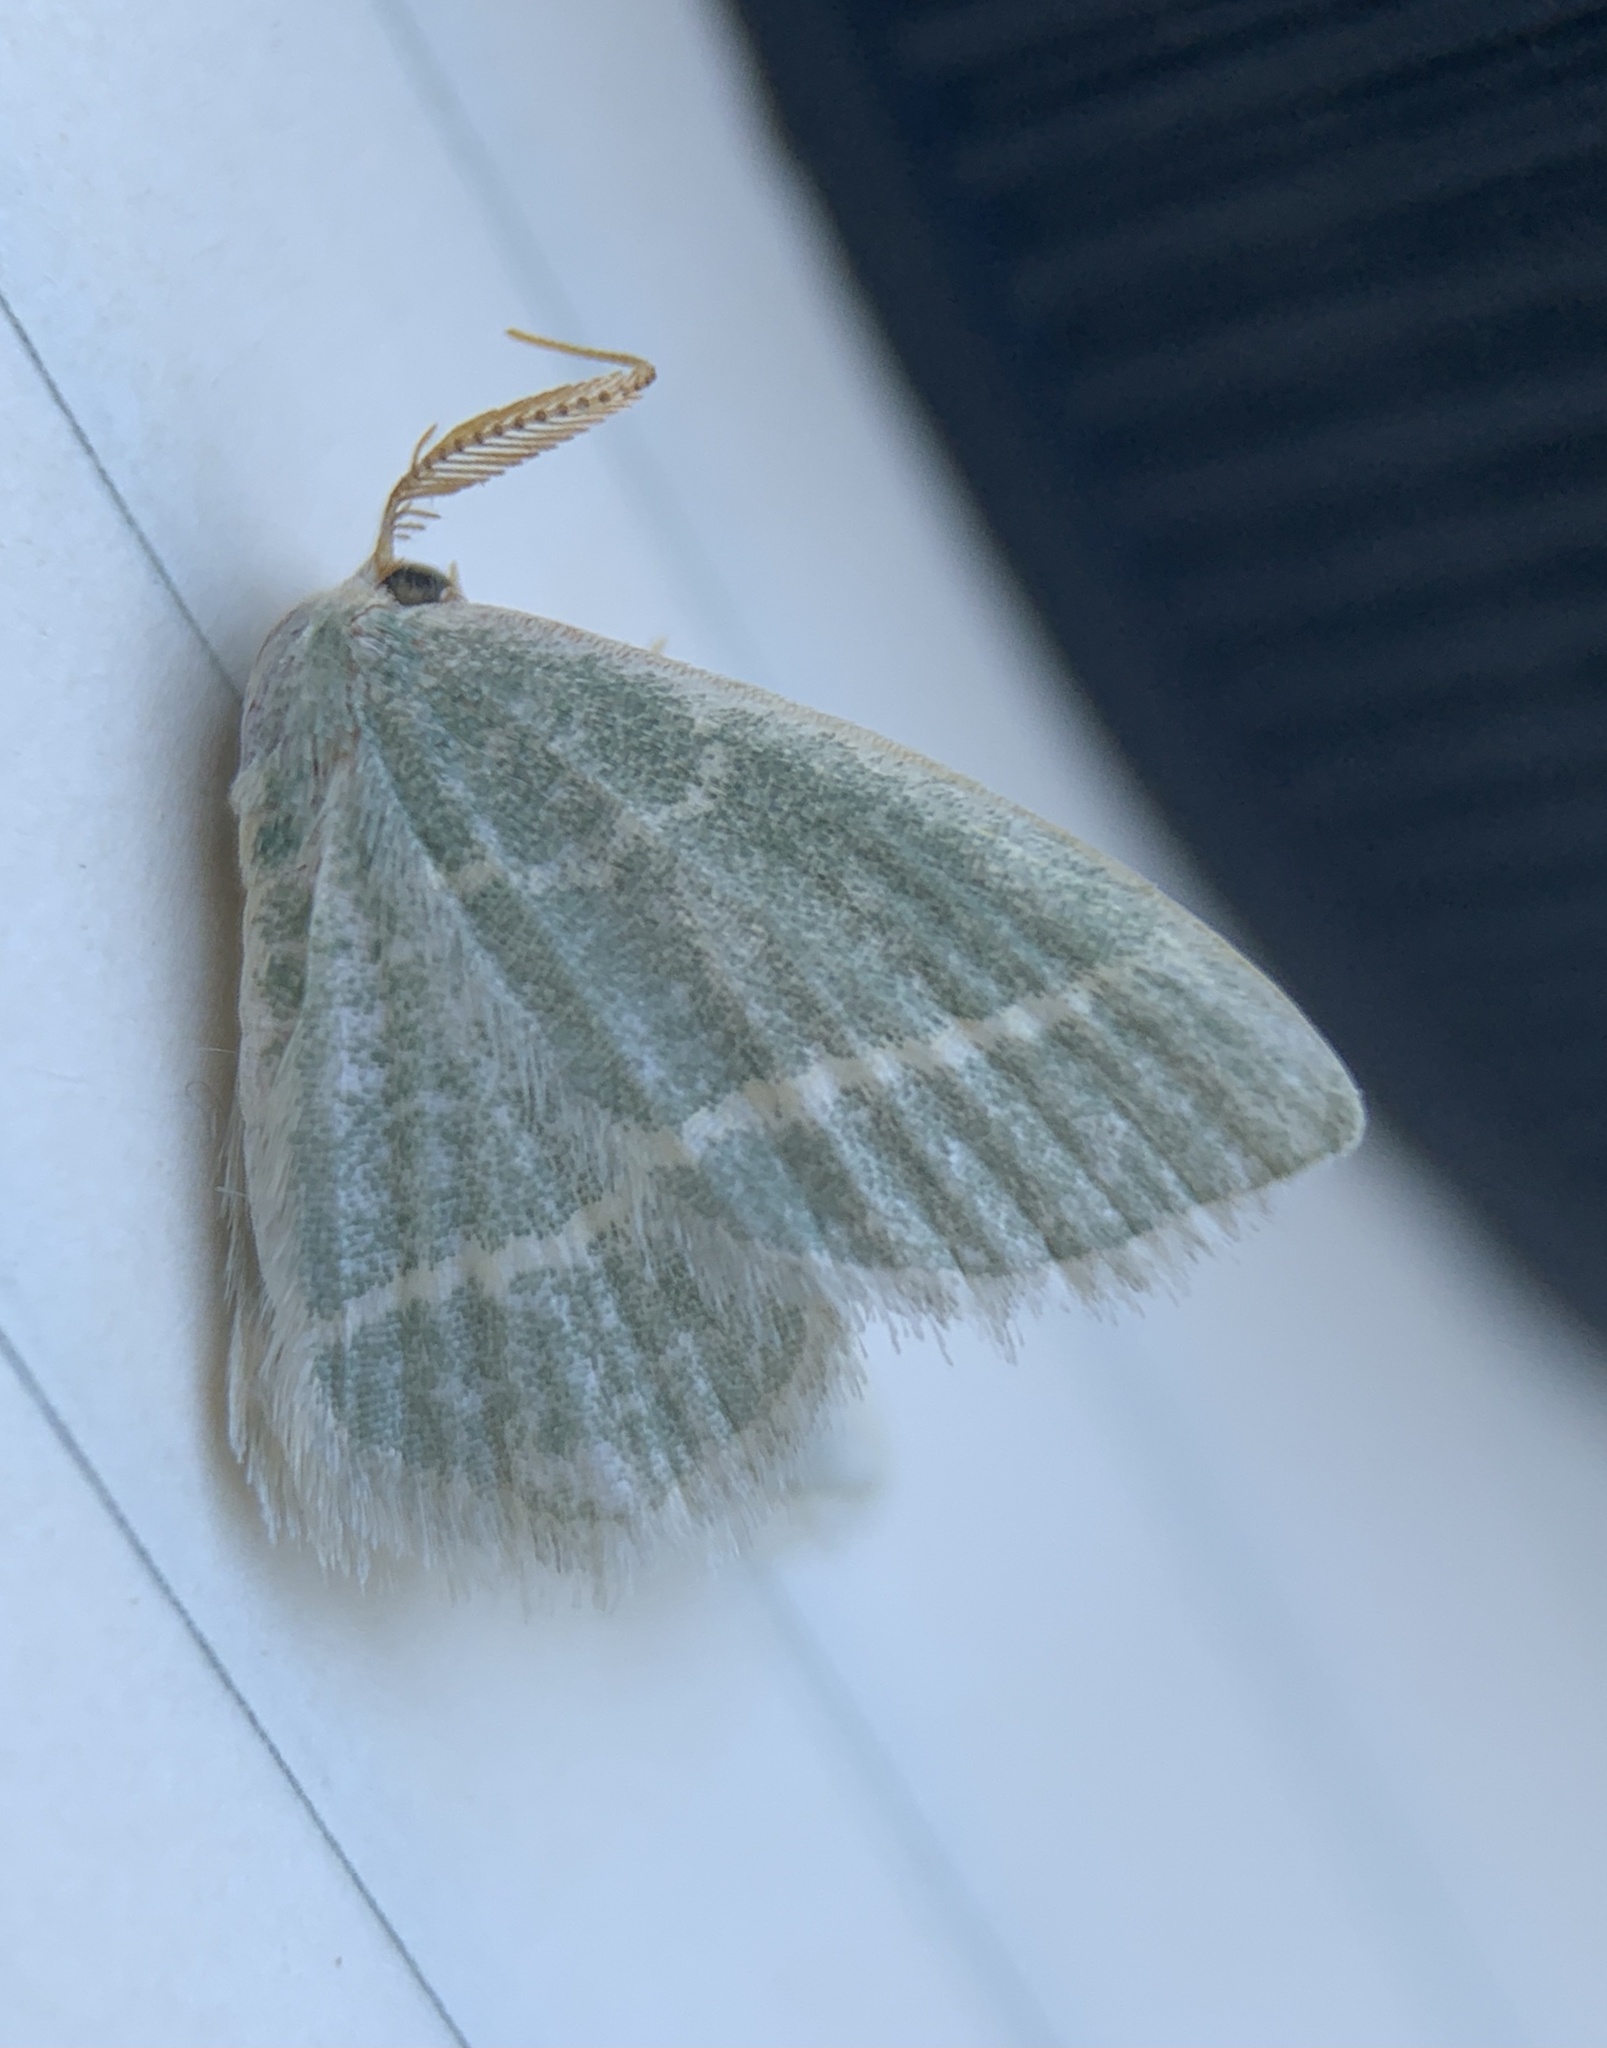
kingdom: Animalia
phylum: Arthropoda
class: Insecta
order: Lepidoptera
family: Geometridae
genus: Chlorochlamys
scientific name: Chlorochlamys chloroleucaria
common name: Blackberry looper
